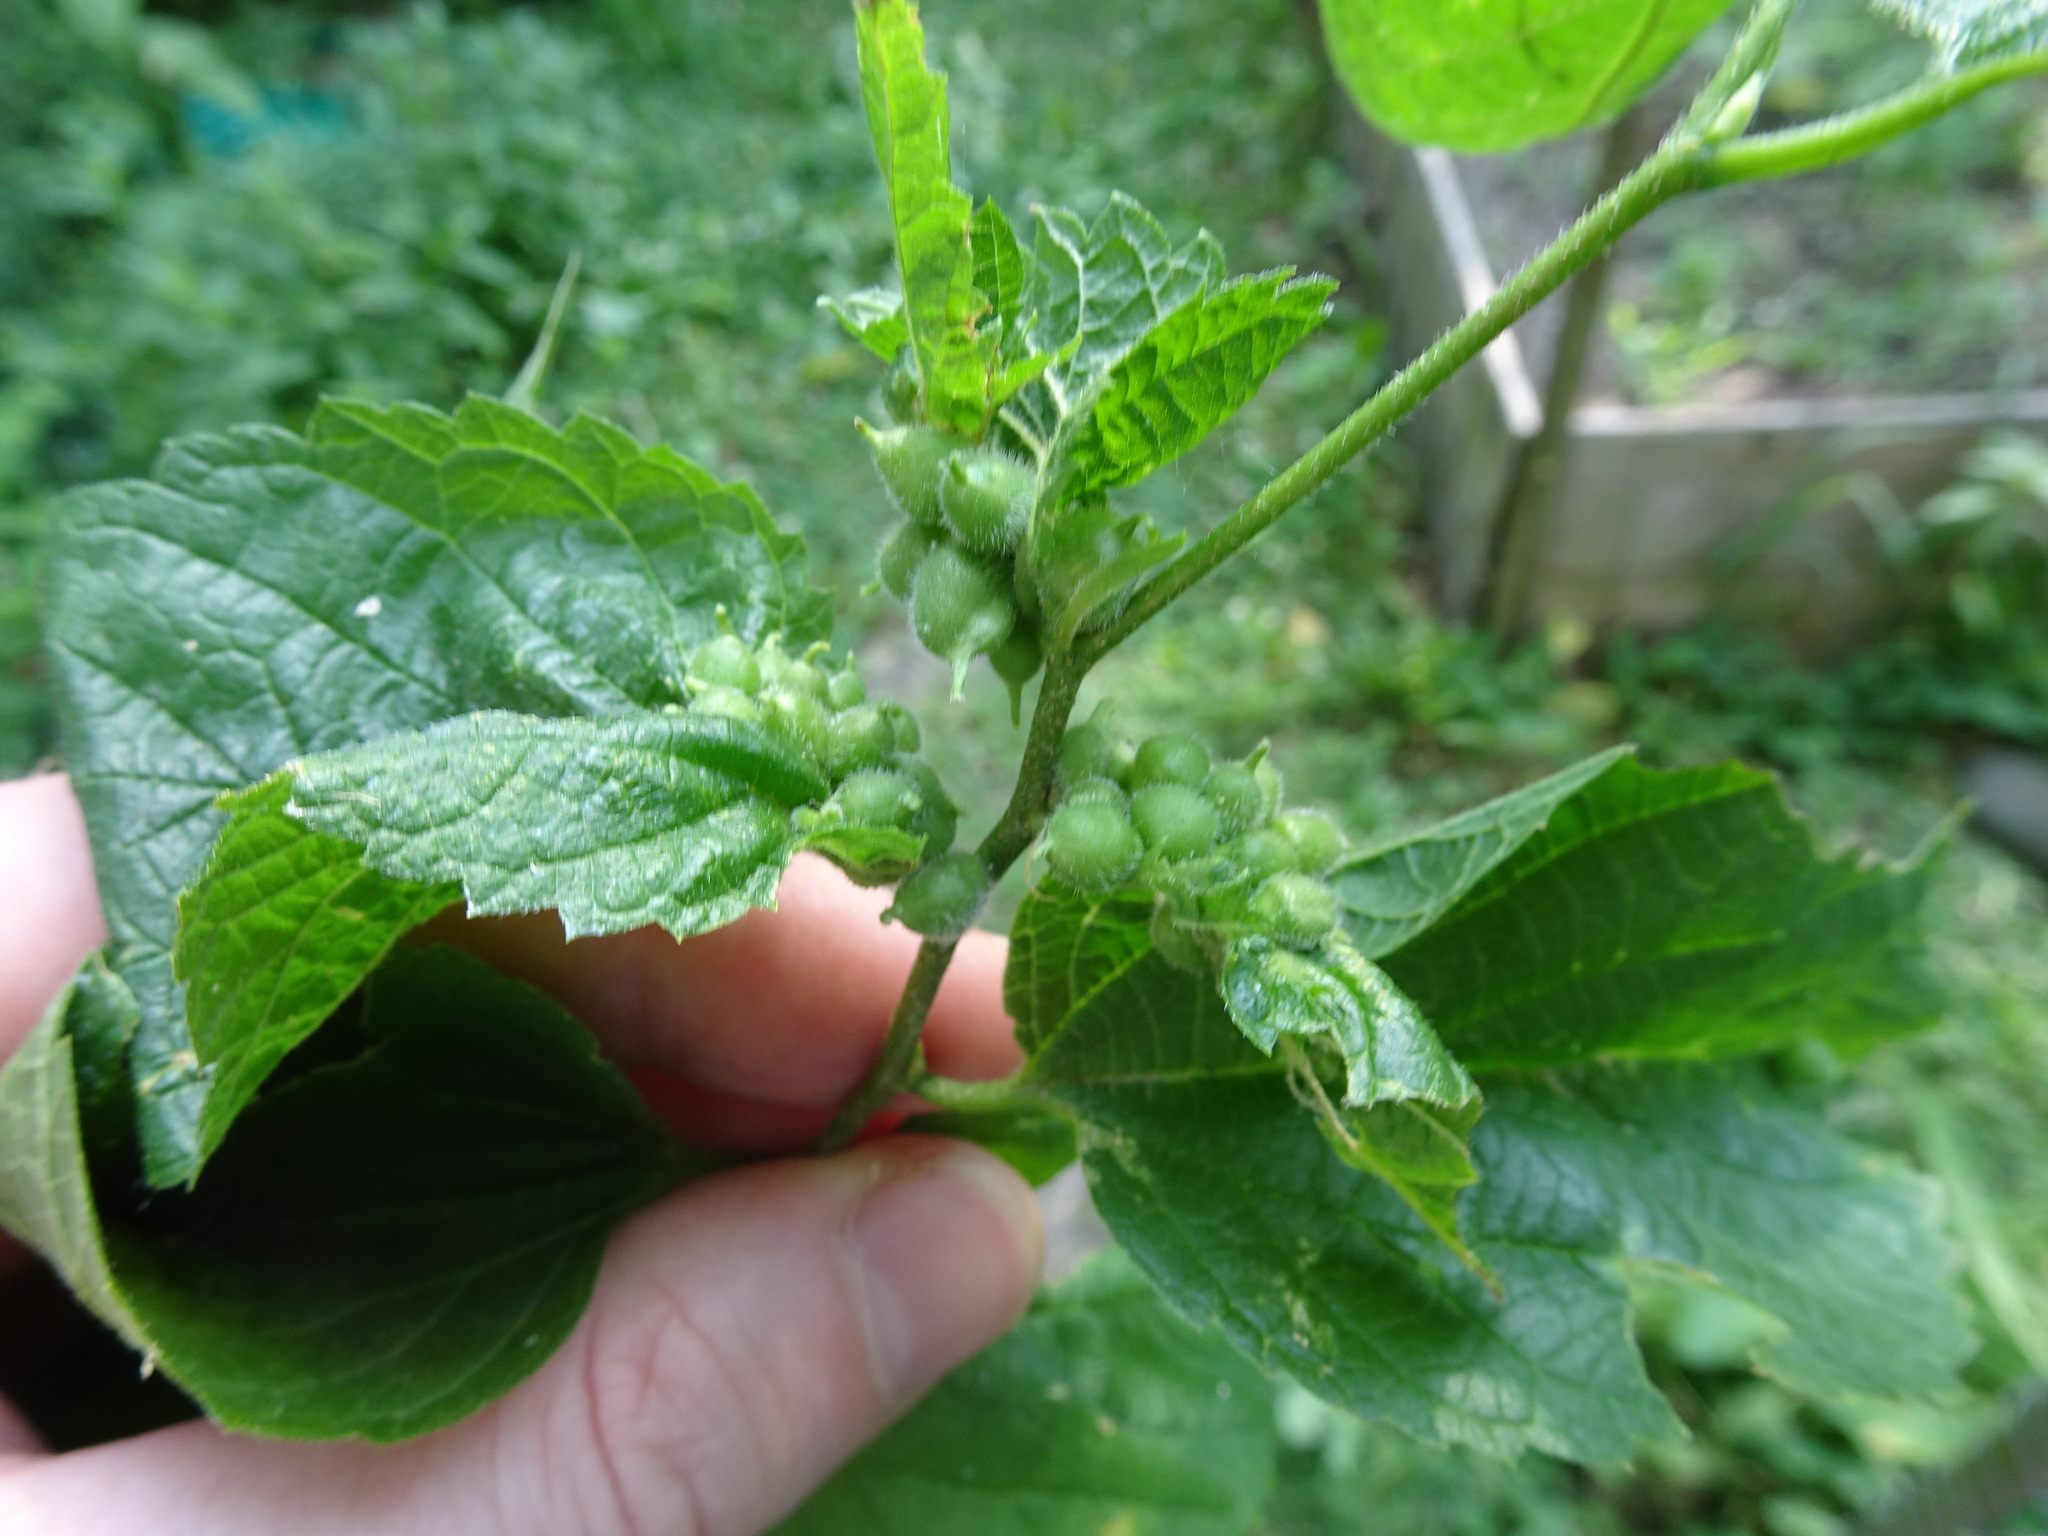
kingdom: Animalia
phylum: Arthropoda
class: Insecta
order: Diptera
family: Cecidomyiidae
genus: Celticecis
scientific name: Celticecis celtiphyllia
